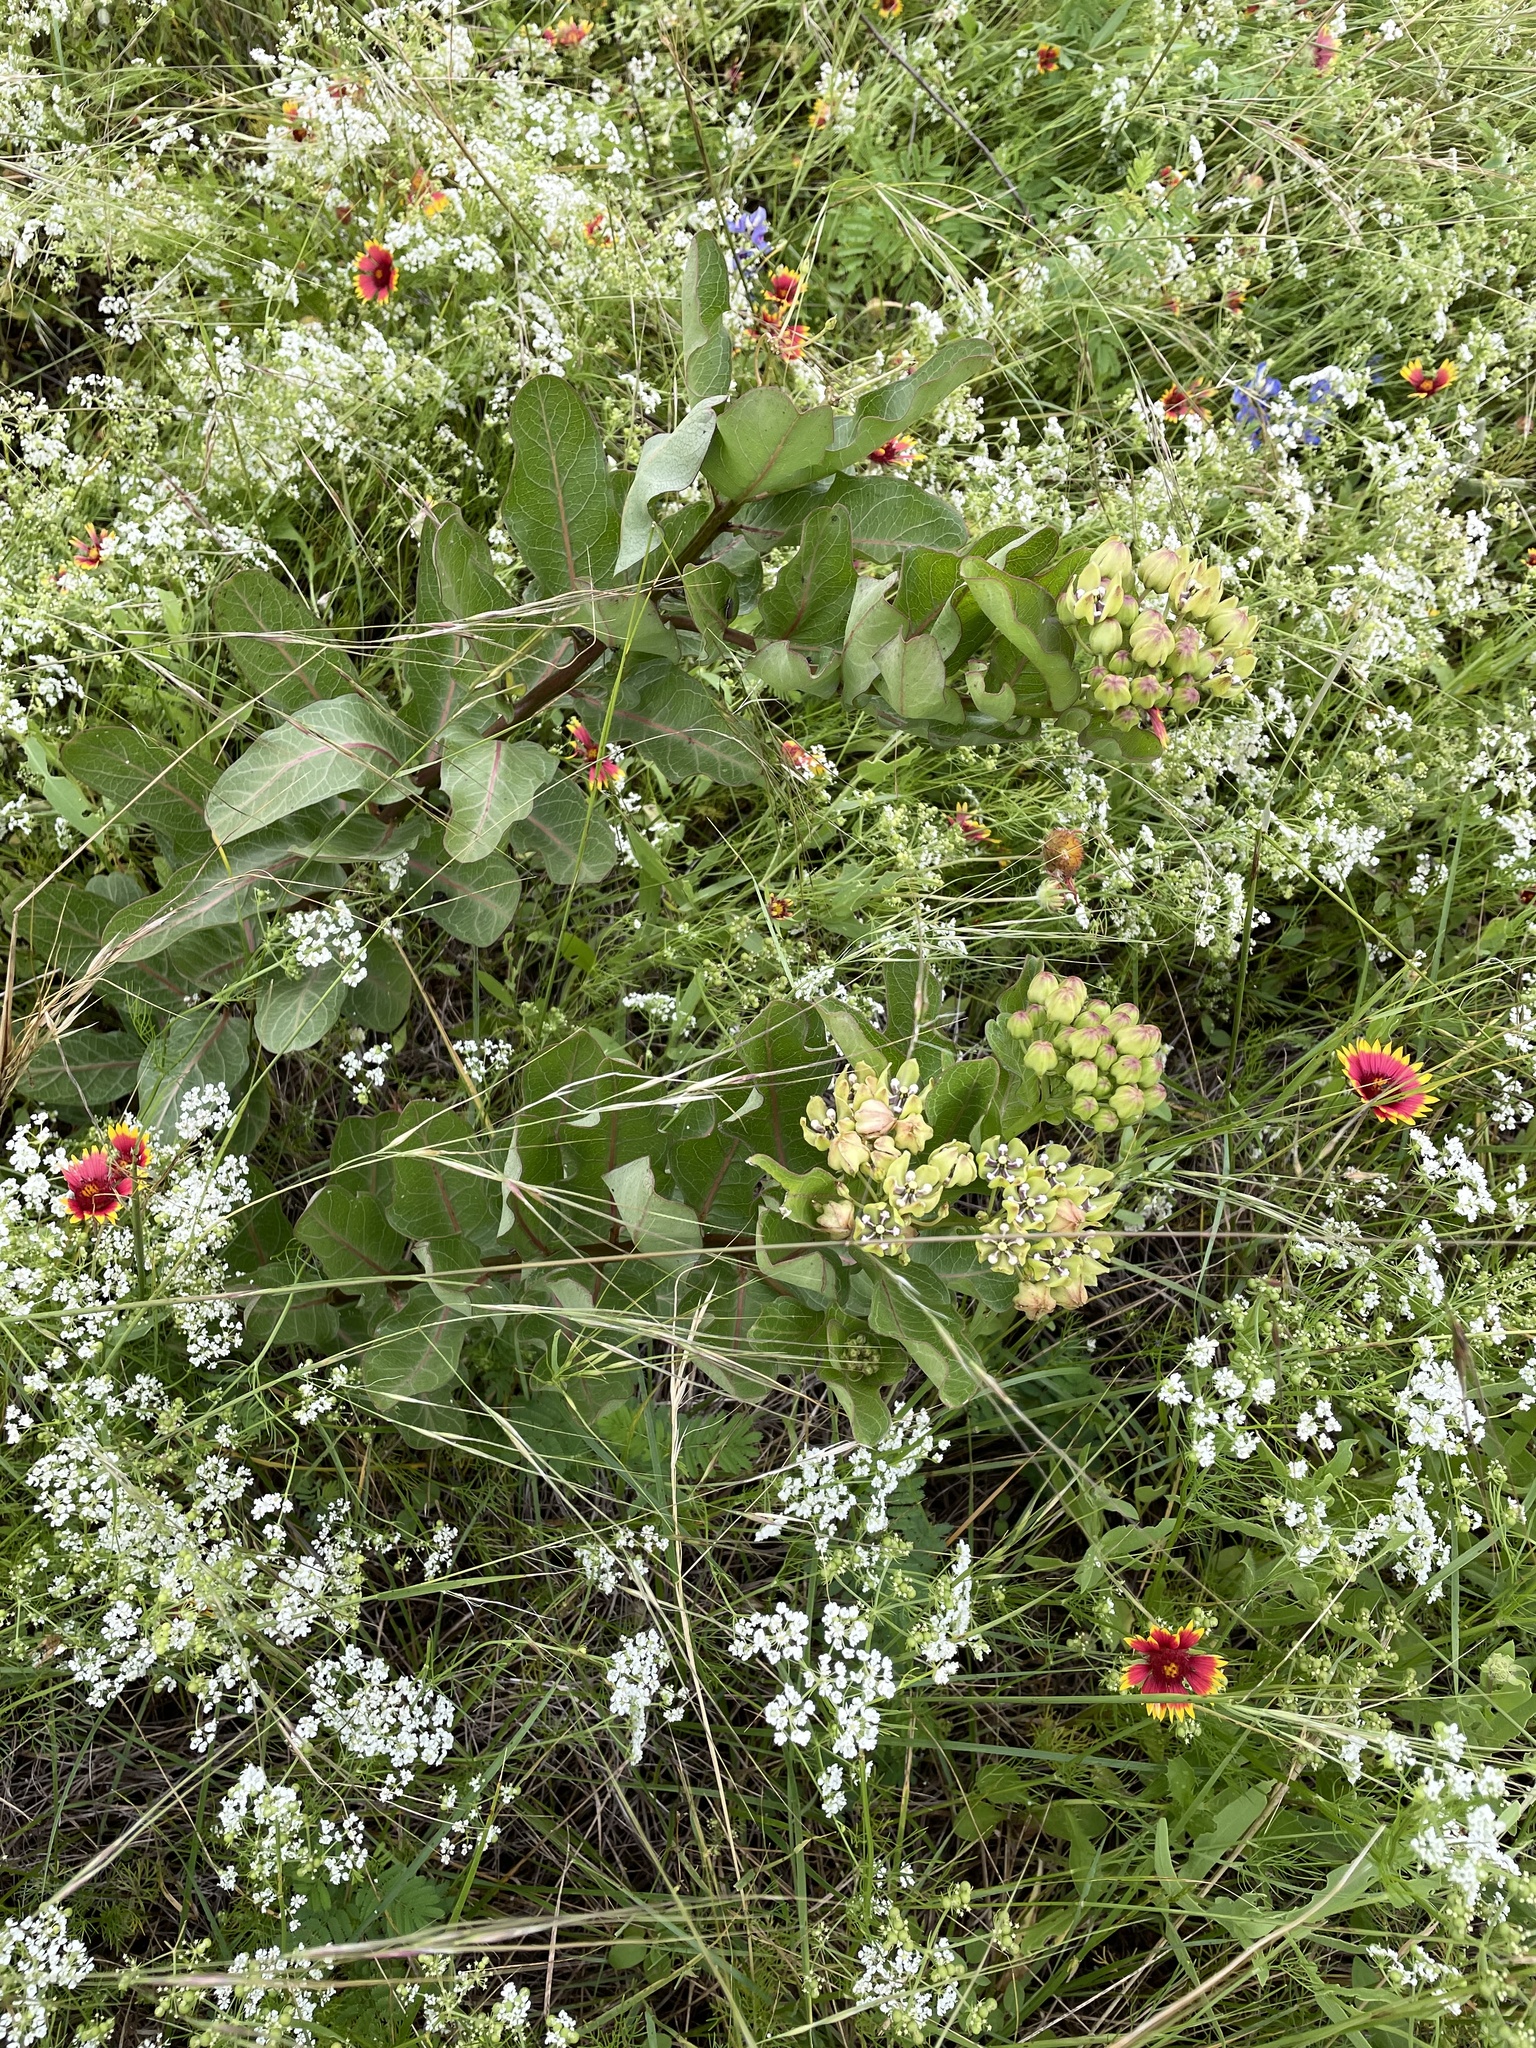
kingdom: Plantae
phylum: Tracheophyta
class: Magnoliopsida
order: Gentianales
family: Apocynaceae
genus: Asclepias
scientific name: Asclepias viridis
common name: Antelope-horns
